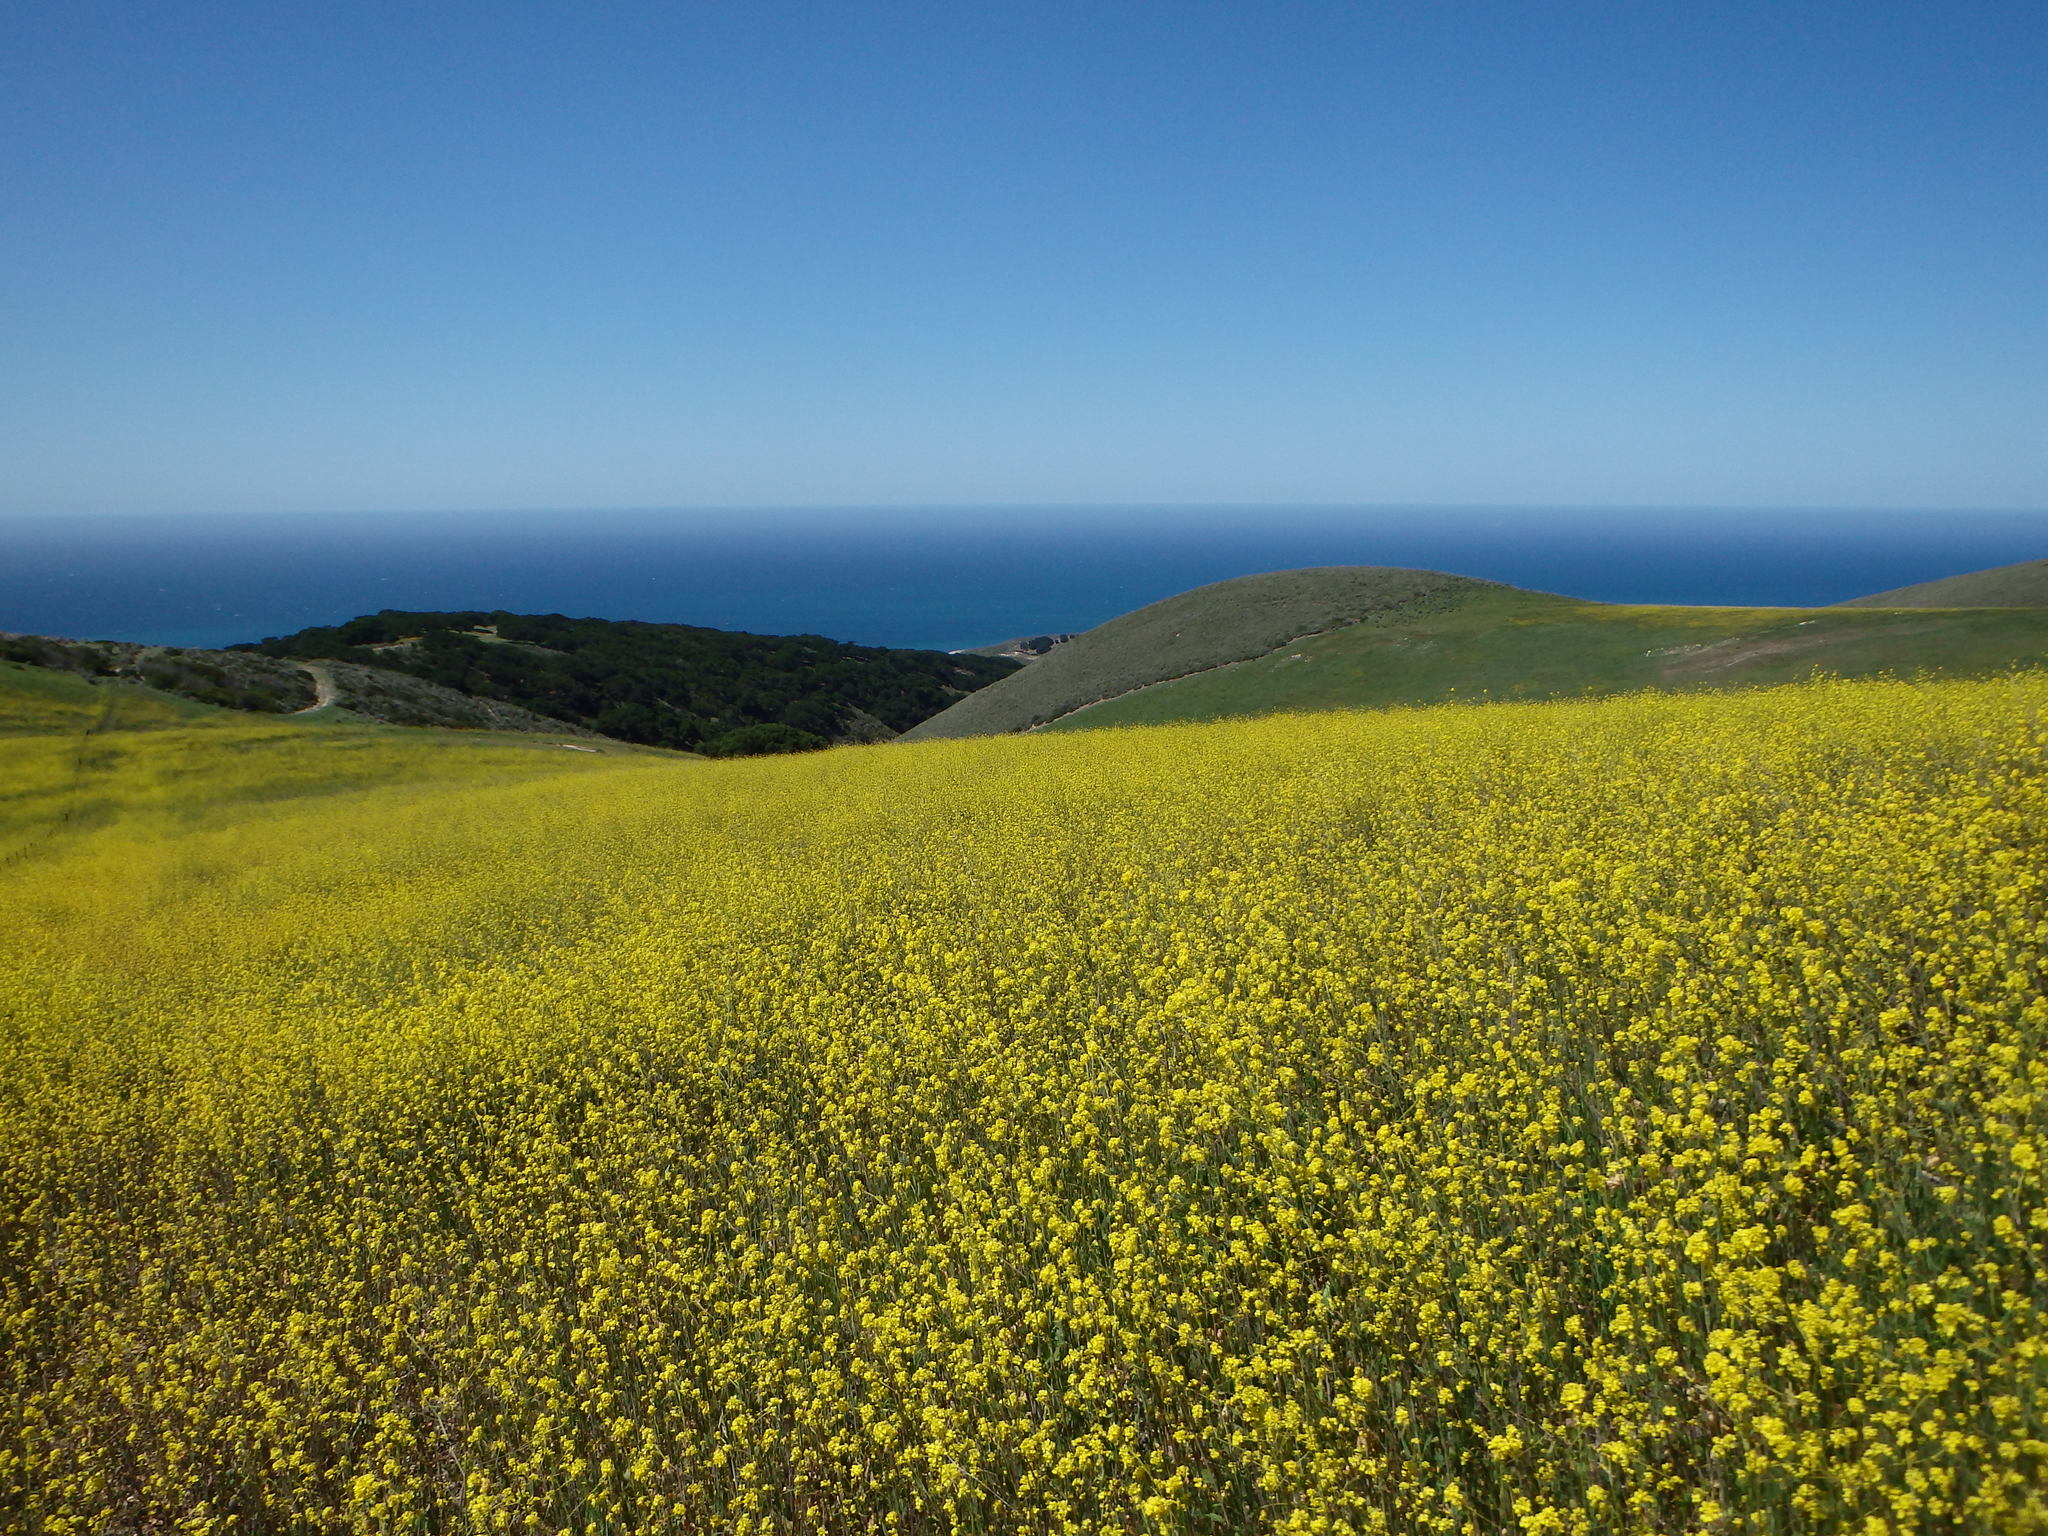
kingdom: Plantae
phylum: Tracheophyta
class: Magnoliopsida
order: Brassicales
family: Brassicaceae
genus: Brassica
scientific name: Brassica nigra
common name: Black mustard
